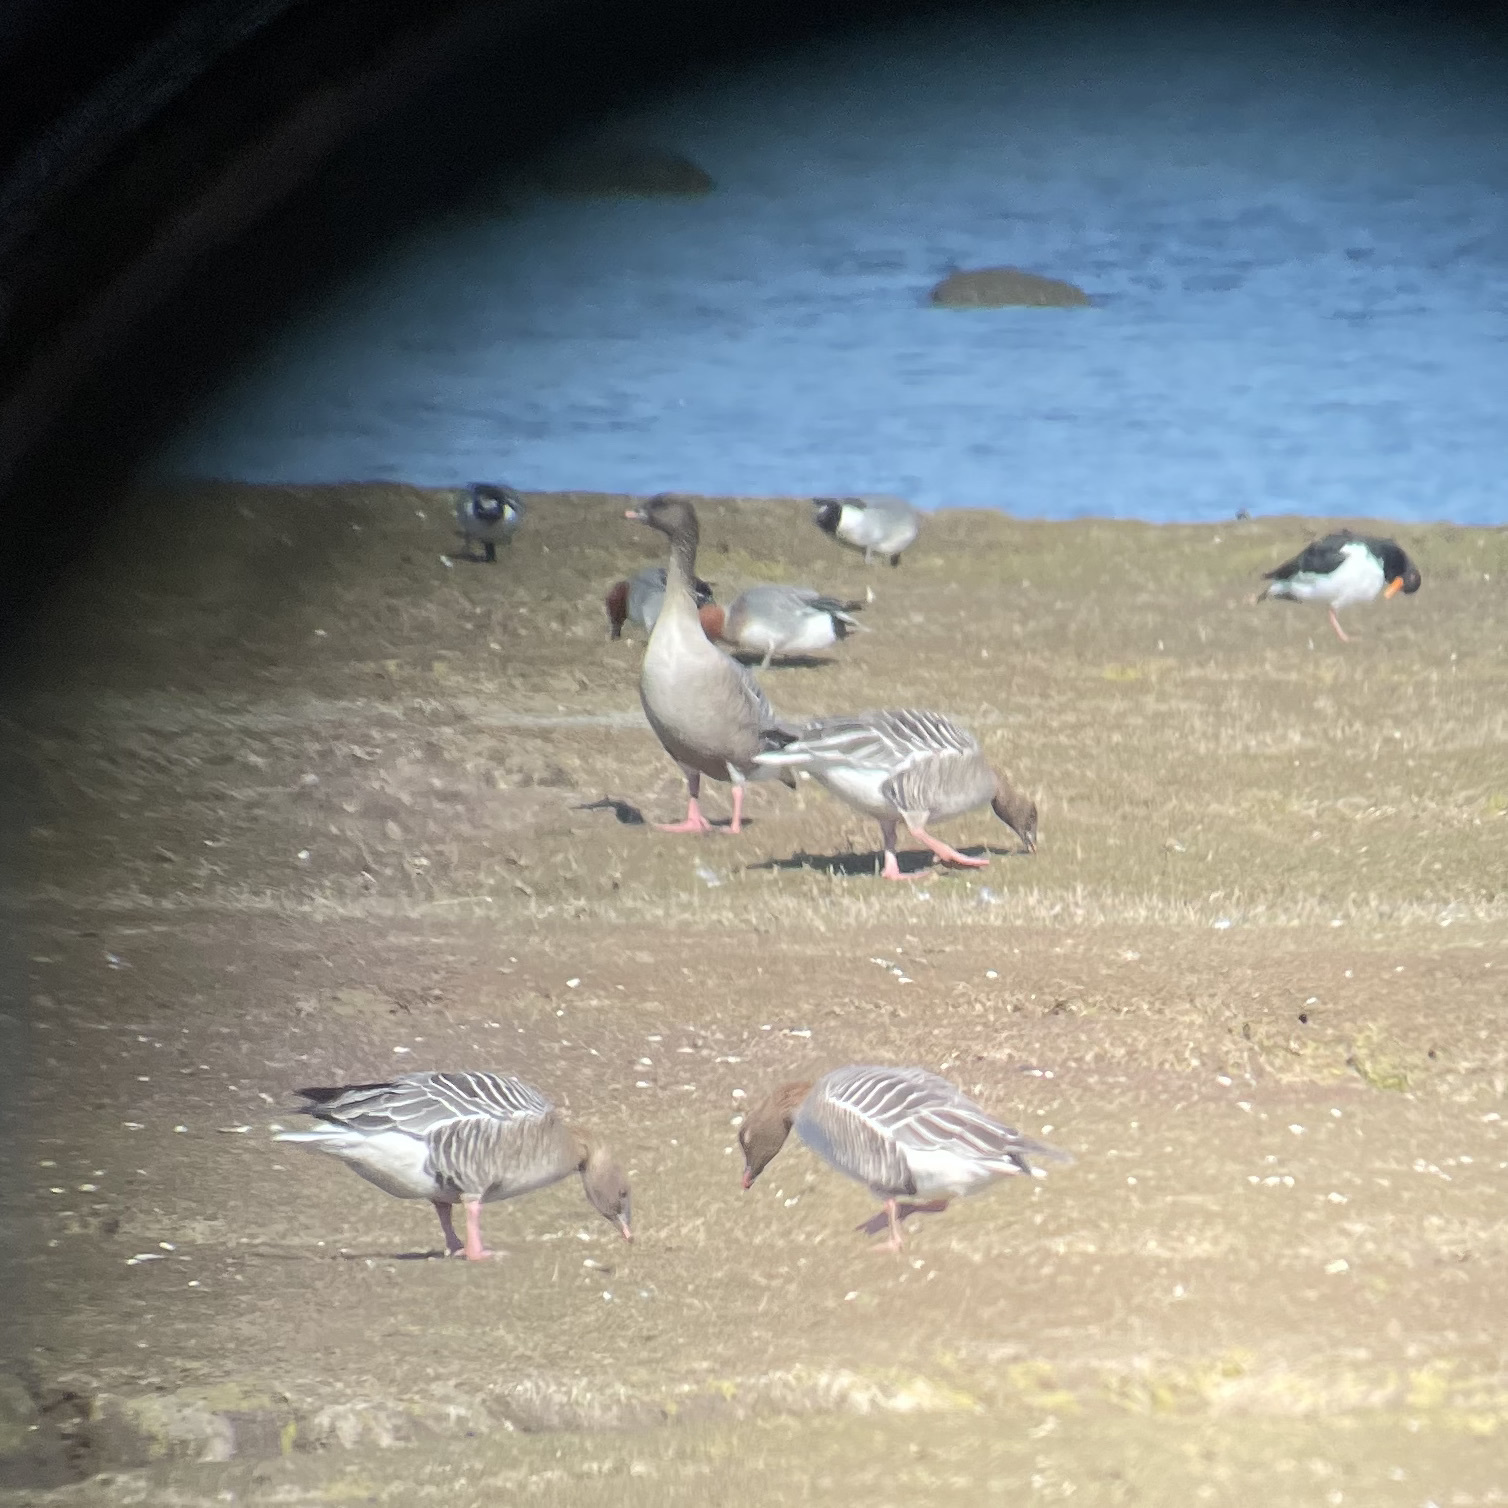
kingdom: Animalia
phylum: Chordata
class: Aves
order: Anseriformes
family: Anatidae
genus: Anser
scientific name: Anser brachyrhynchus
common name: Pink-footed goose
